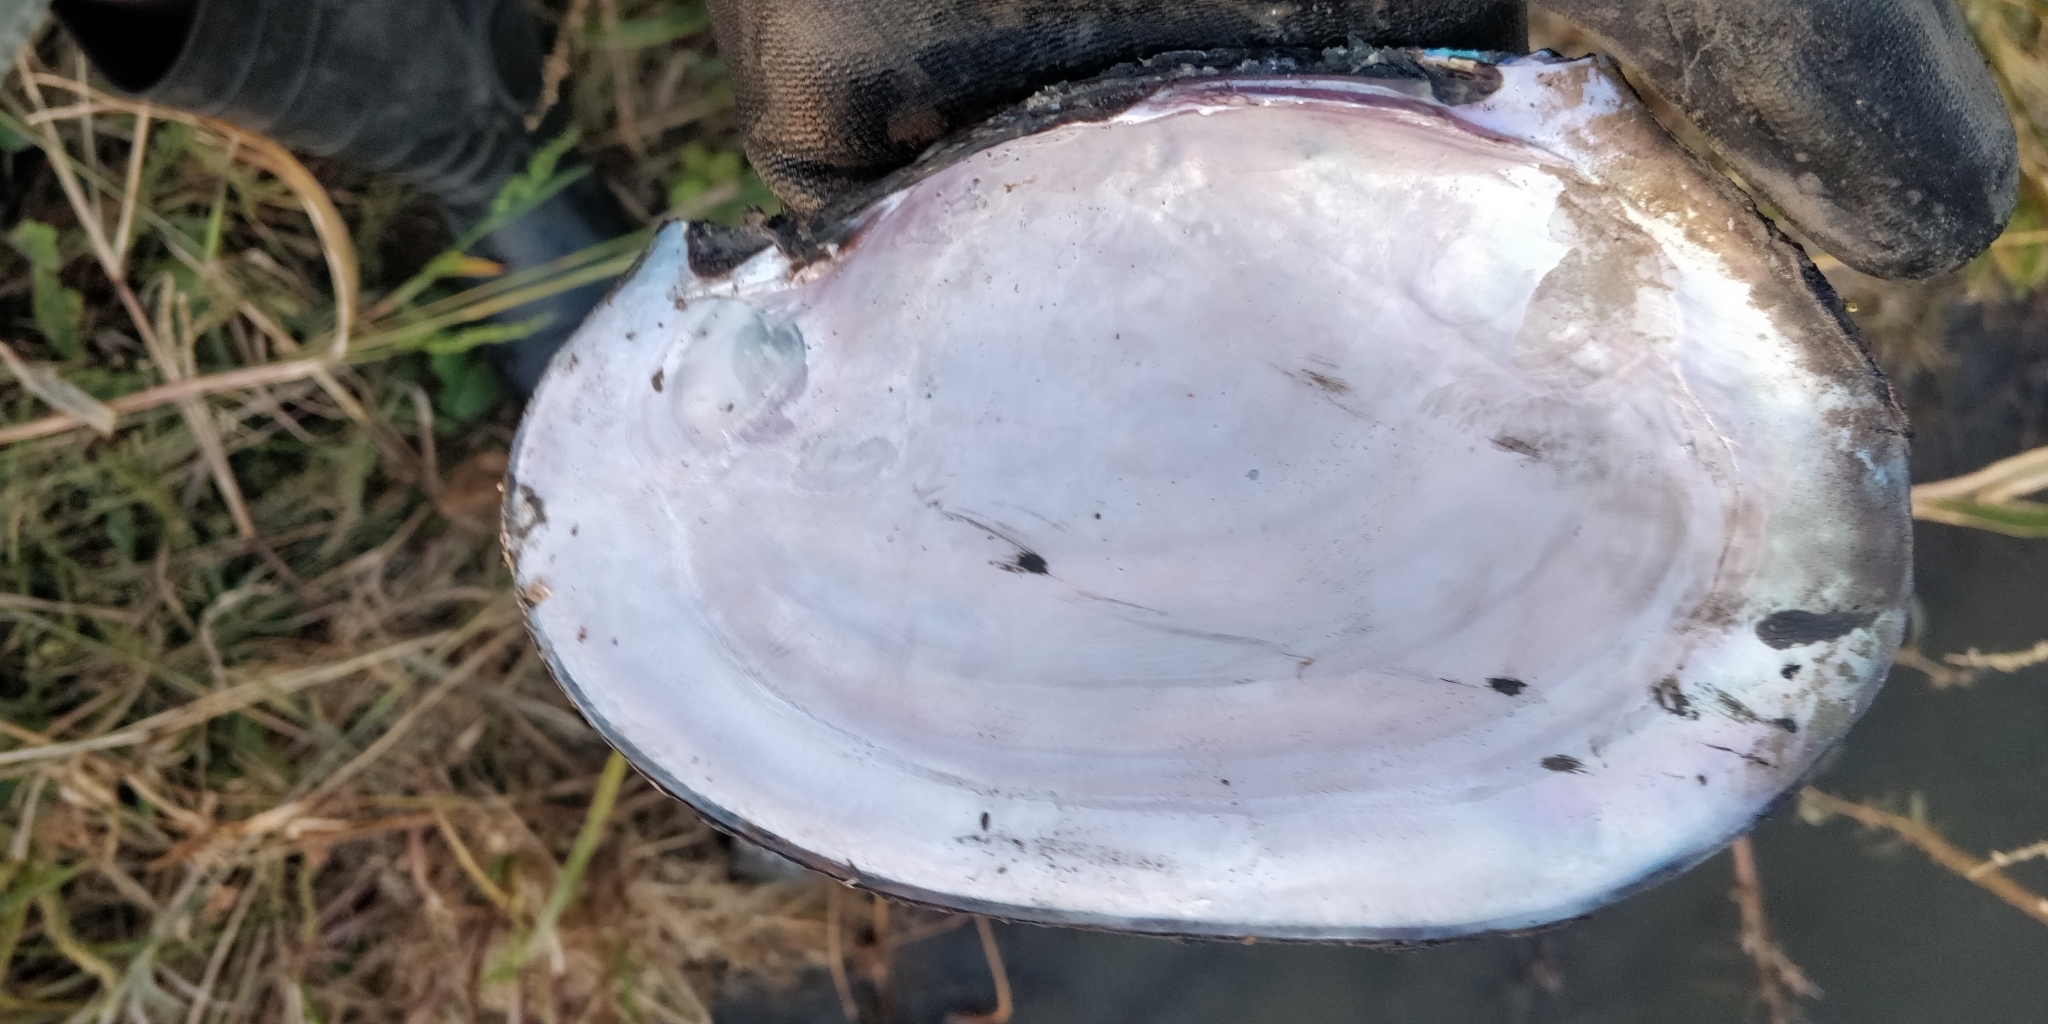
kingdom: Animalia
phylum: Mollusca
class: Bivalvia
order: Unionida
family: Unionidae
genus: Potamilus
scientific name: Potamilus ohiensis
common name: Pink papershell
